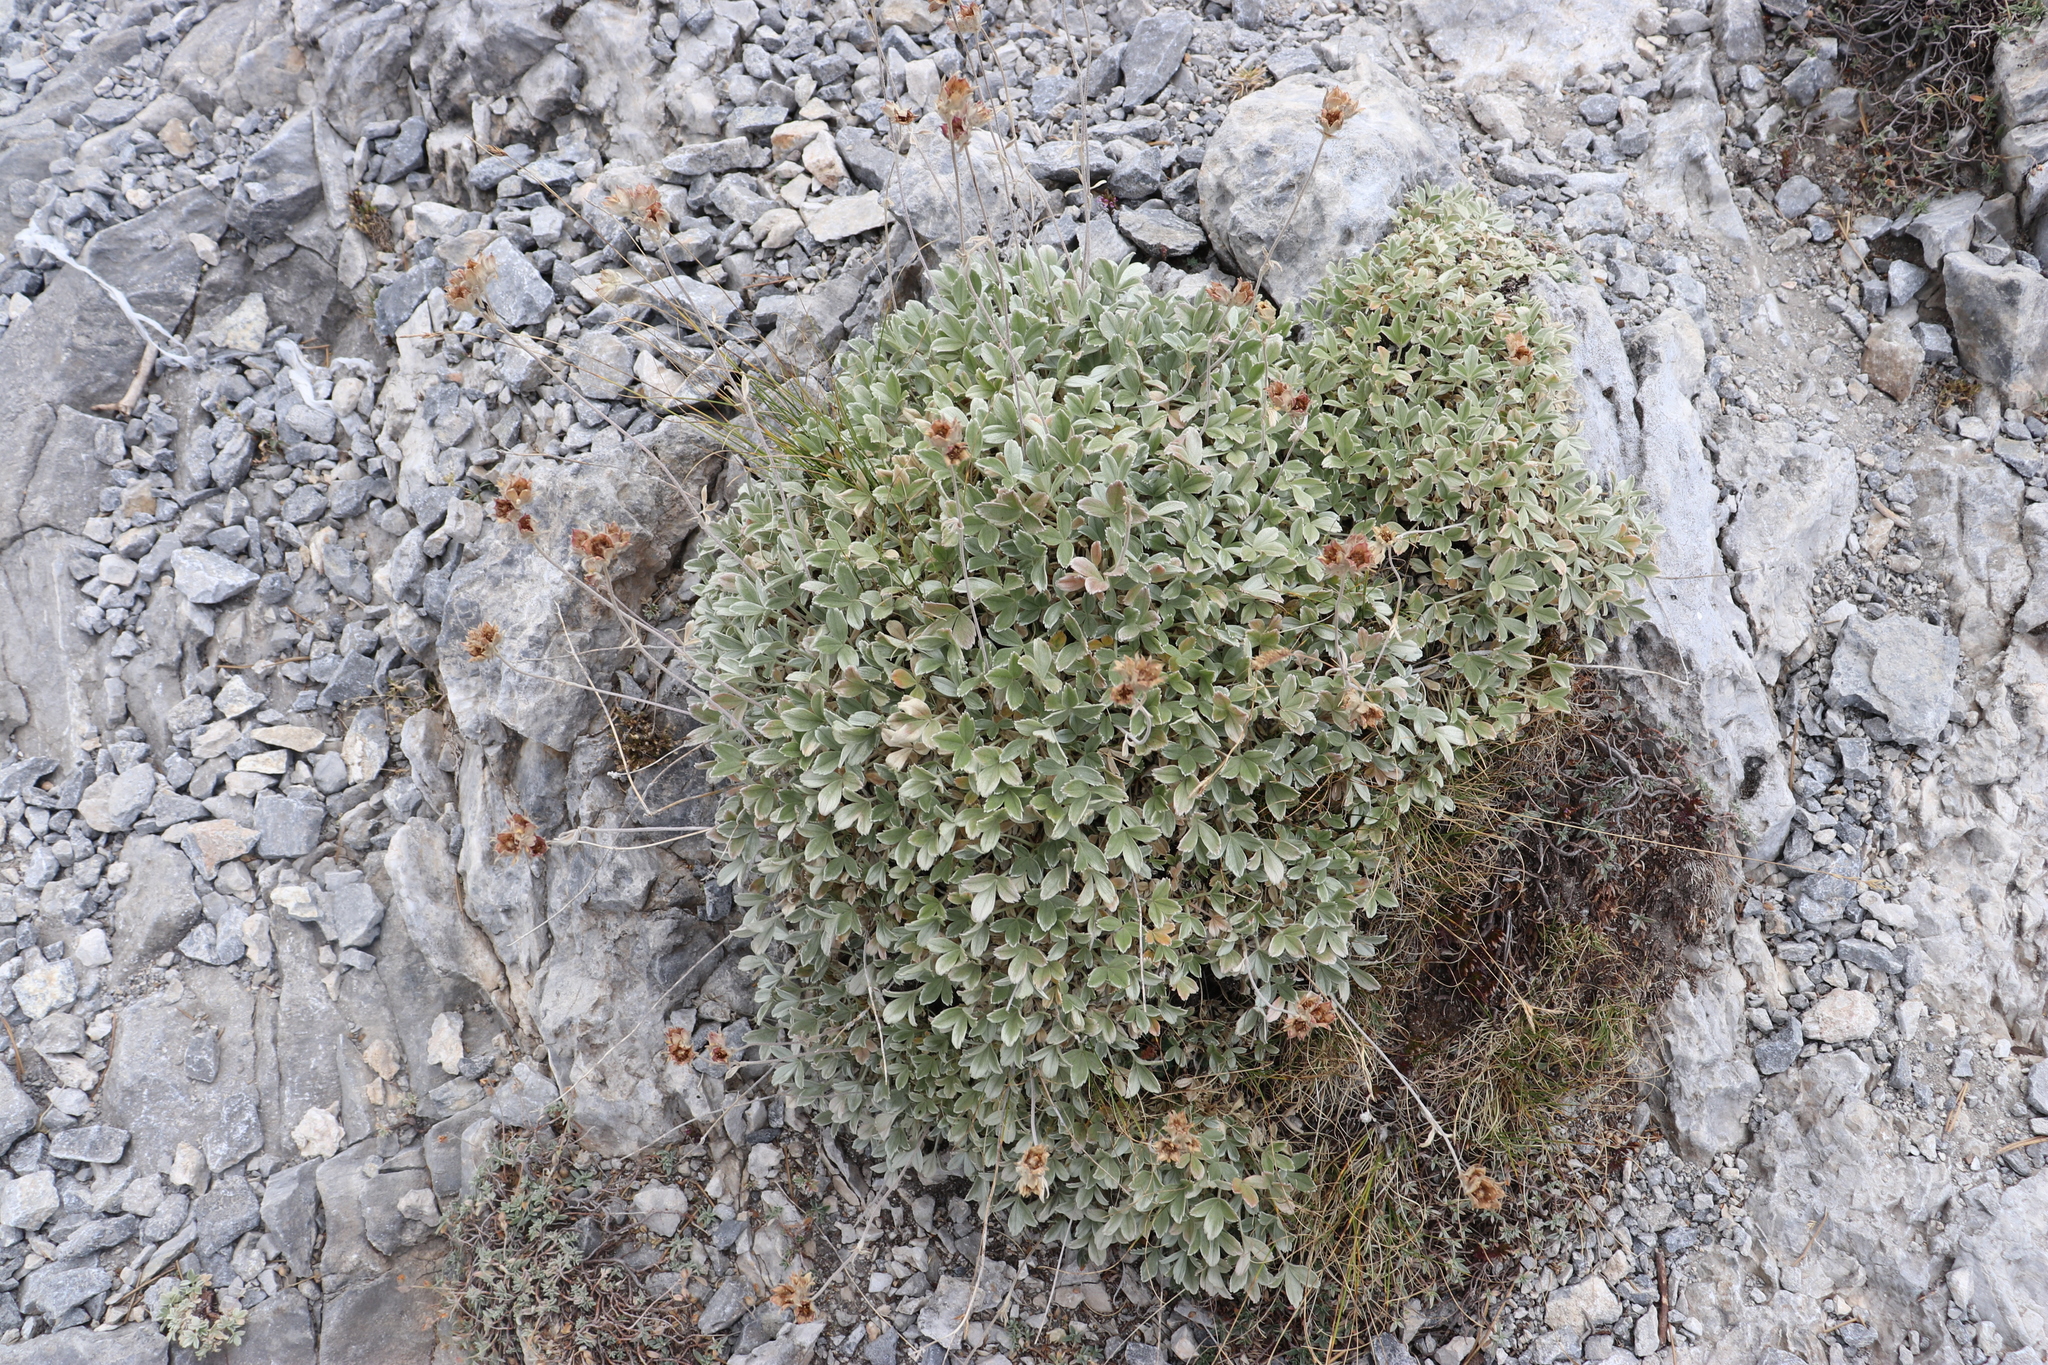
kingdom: Plantae
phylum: Tracheophyta
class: Magnoliopsida
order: Rosales
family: Rosaceae
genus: Potentilla
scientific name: Potentilla deorum
